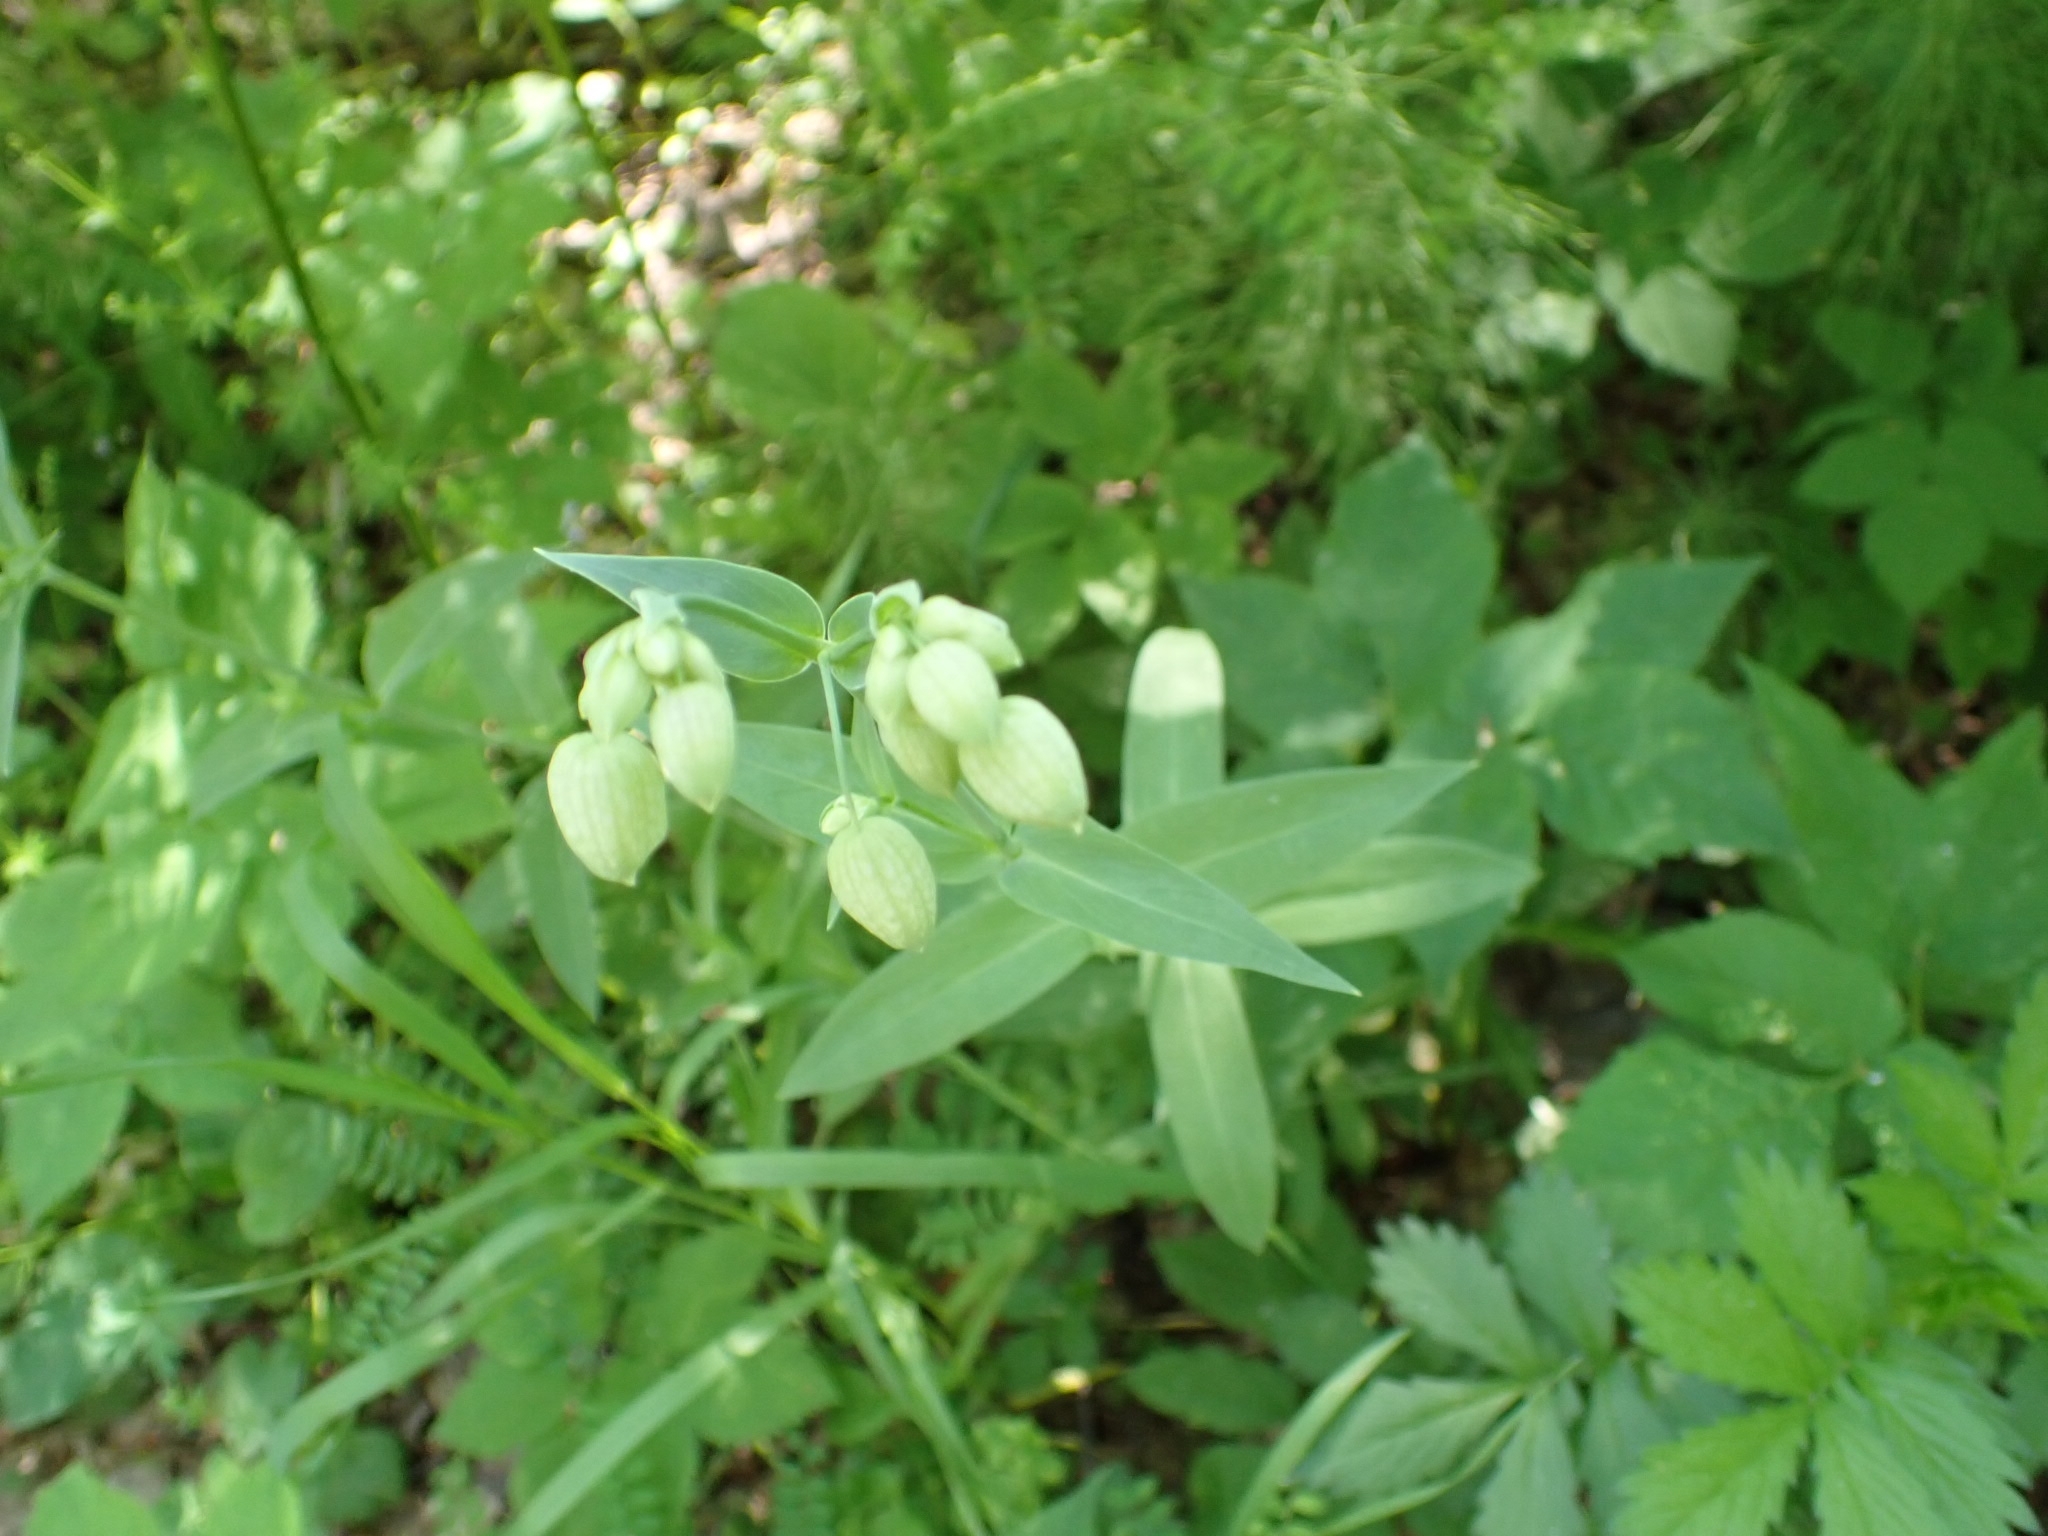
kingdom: Plantae
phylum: Tracheophyta
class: Magnoliopsida
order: Caryophyllales
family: Caryophyllaceae
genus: Silene
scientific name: Silene vulgaris
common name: Bladder campion
